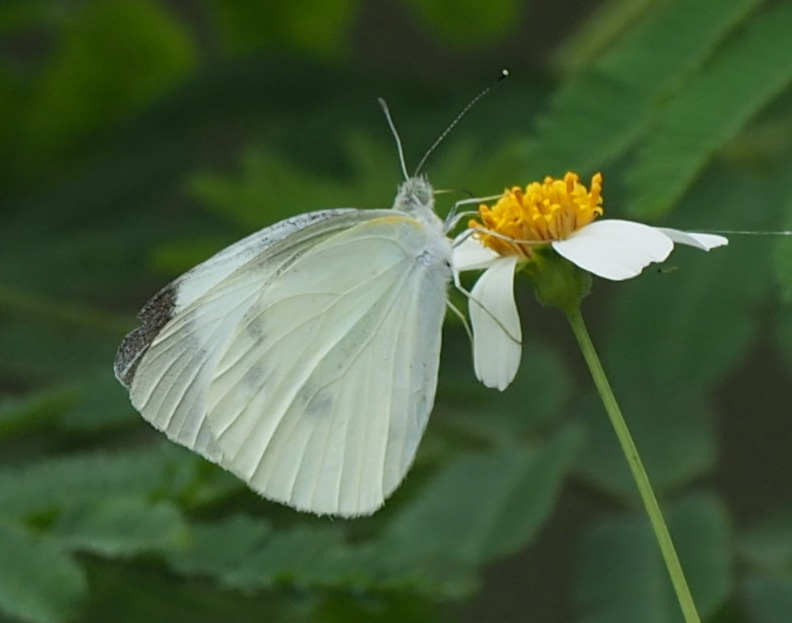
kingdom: Animalia
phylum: Arthropoda
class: Insecta
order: Lepidoptera
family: Pieridae
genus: Pieris
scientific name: Pieris rapae
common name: Small white
